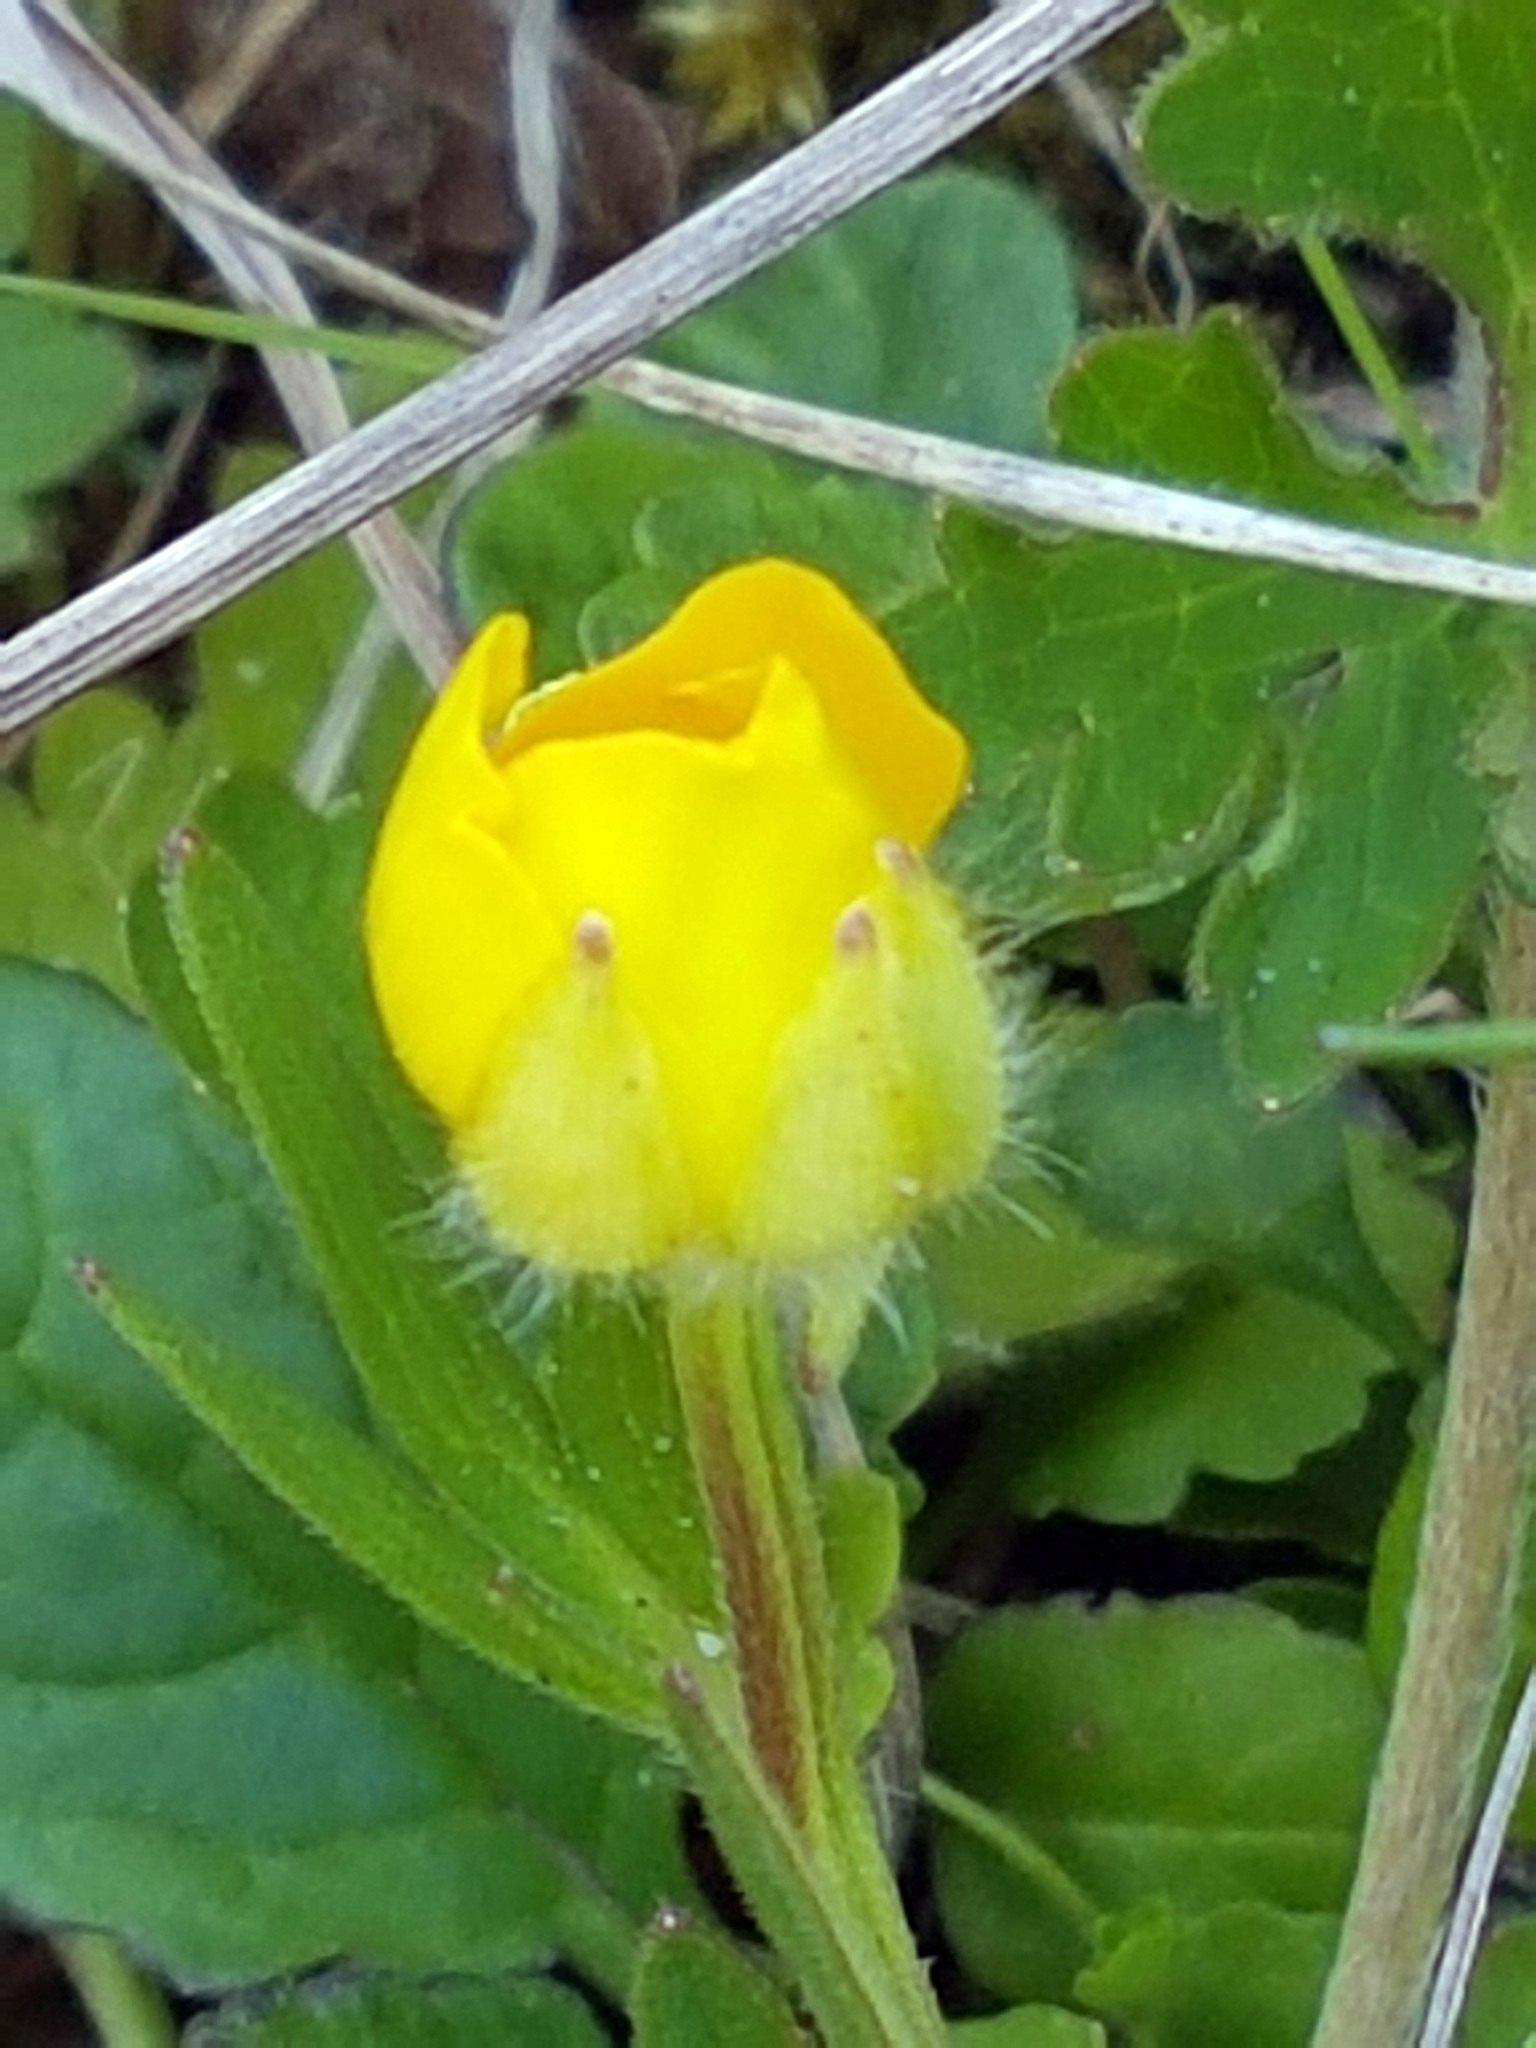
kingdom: Plantae
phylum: Tracheophyta
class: Magnoliopsida
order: Ranunculales
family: Ranunculaceae
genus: Ranunculus
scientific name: Ranunculus bulbosus
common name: Bulbous buttercup
